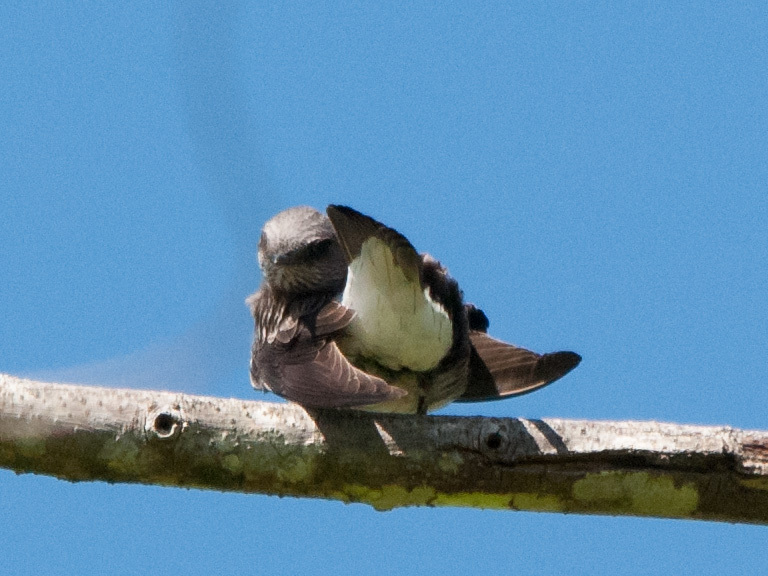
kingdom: Animalia
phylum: Chordata
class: Aves
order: Passeriformes
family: Hirundinidae
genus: Phedina
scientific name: Phedina borbonica
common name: Mascarene martin
